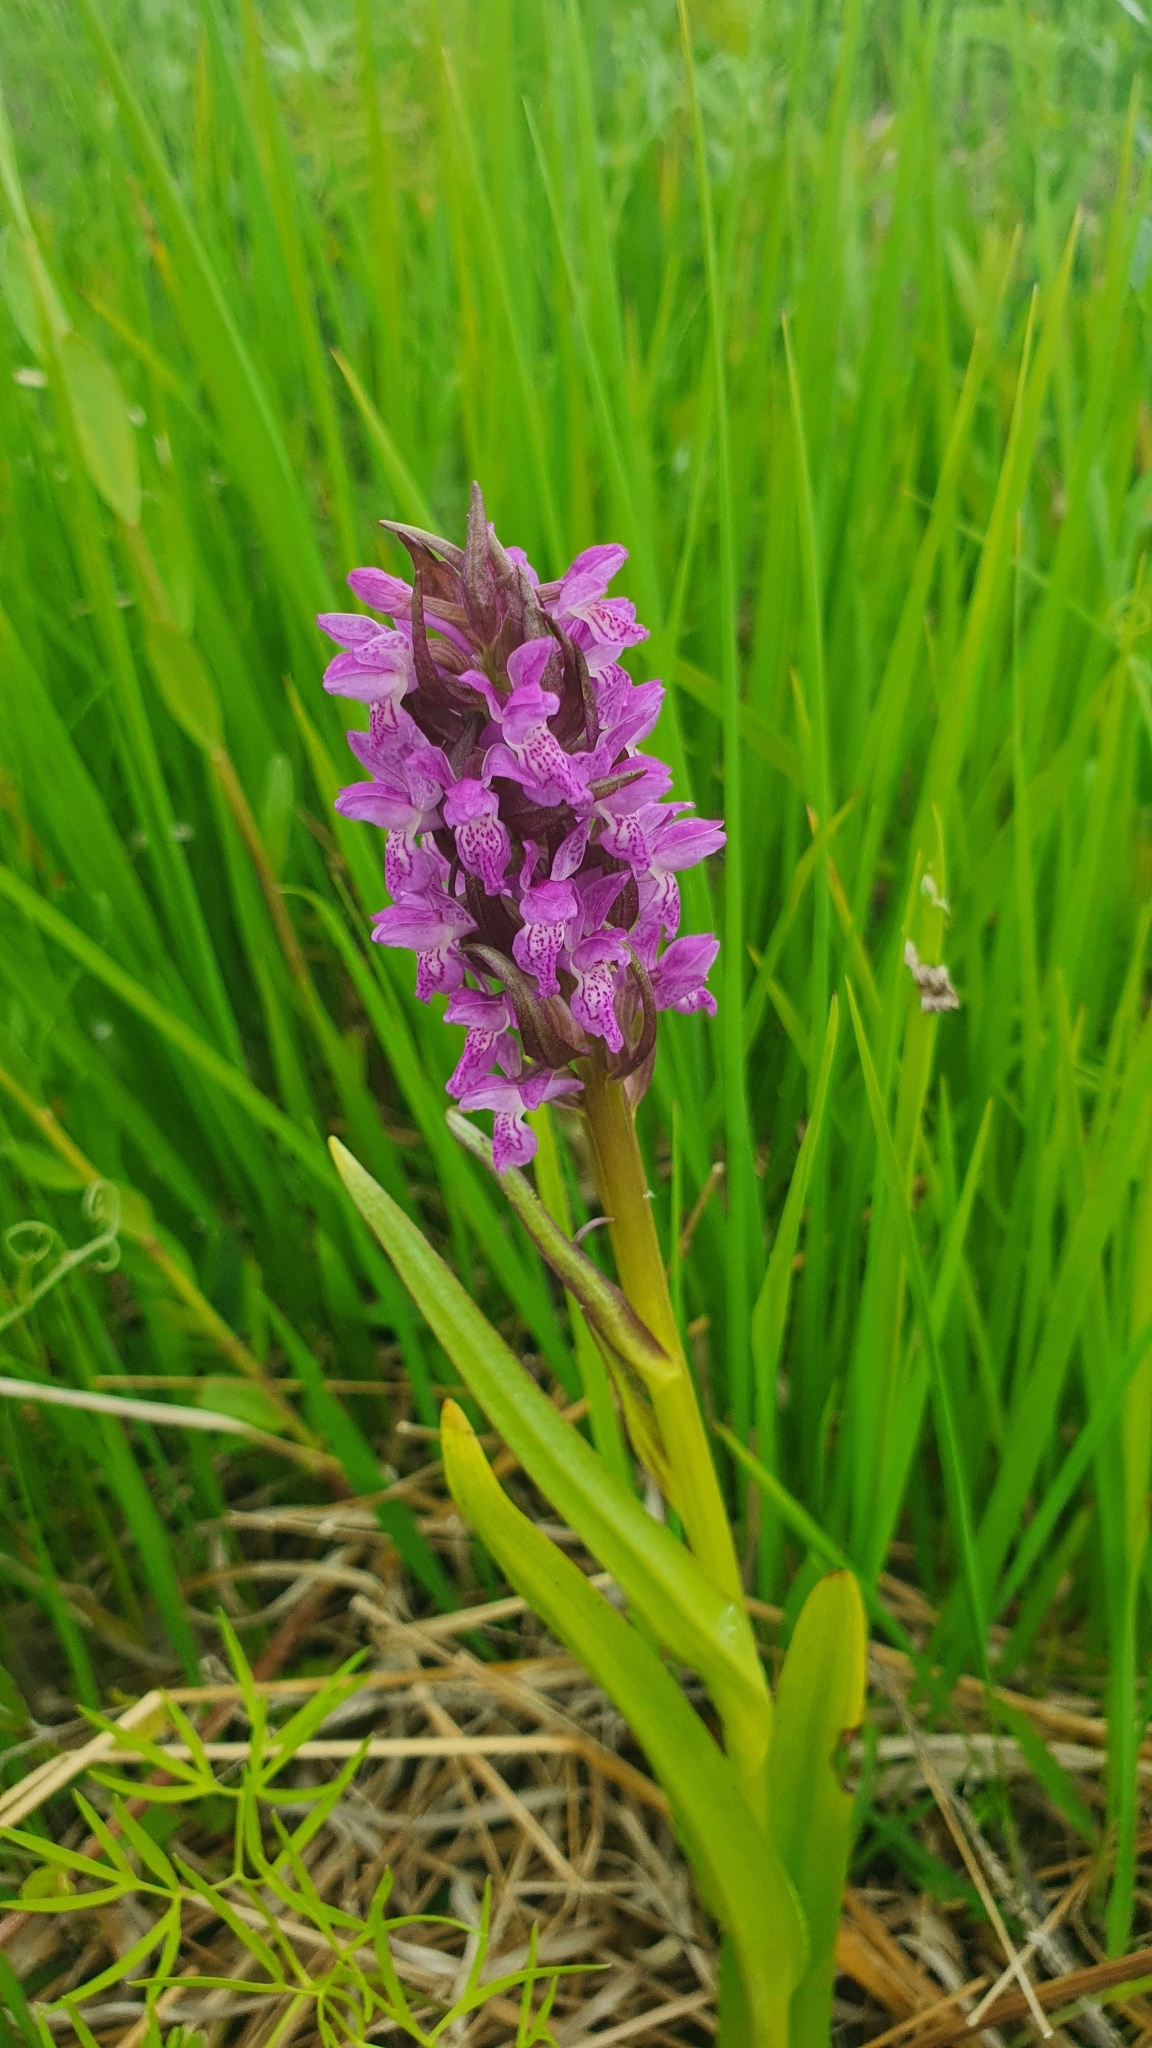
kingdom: Plantae
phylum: Tracheophyta
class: Liliopsida
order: Asparagales
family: Orchidaceae
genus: Dactylorhiza
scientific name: Dactylorhiza incarnata
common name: Early marsh-orchid
